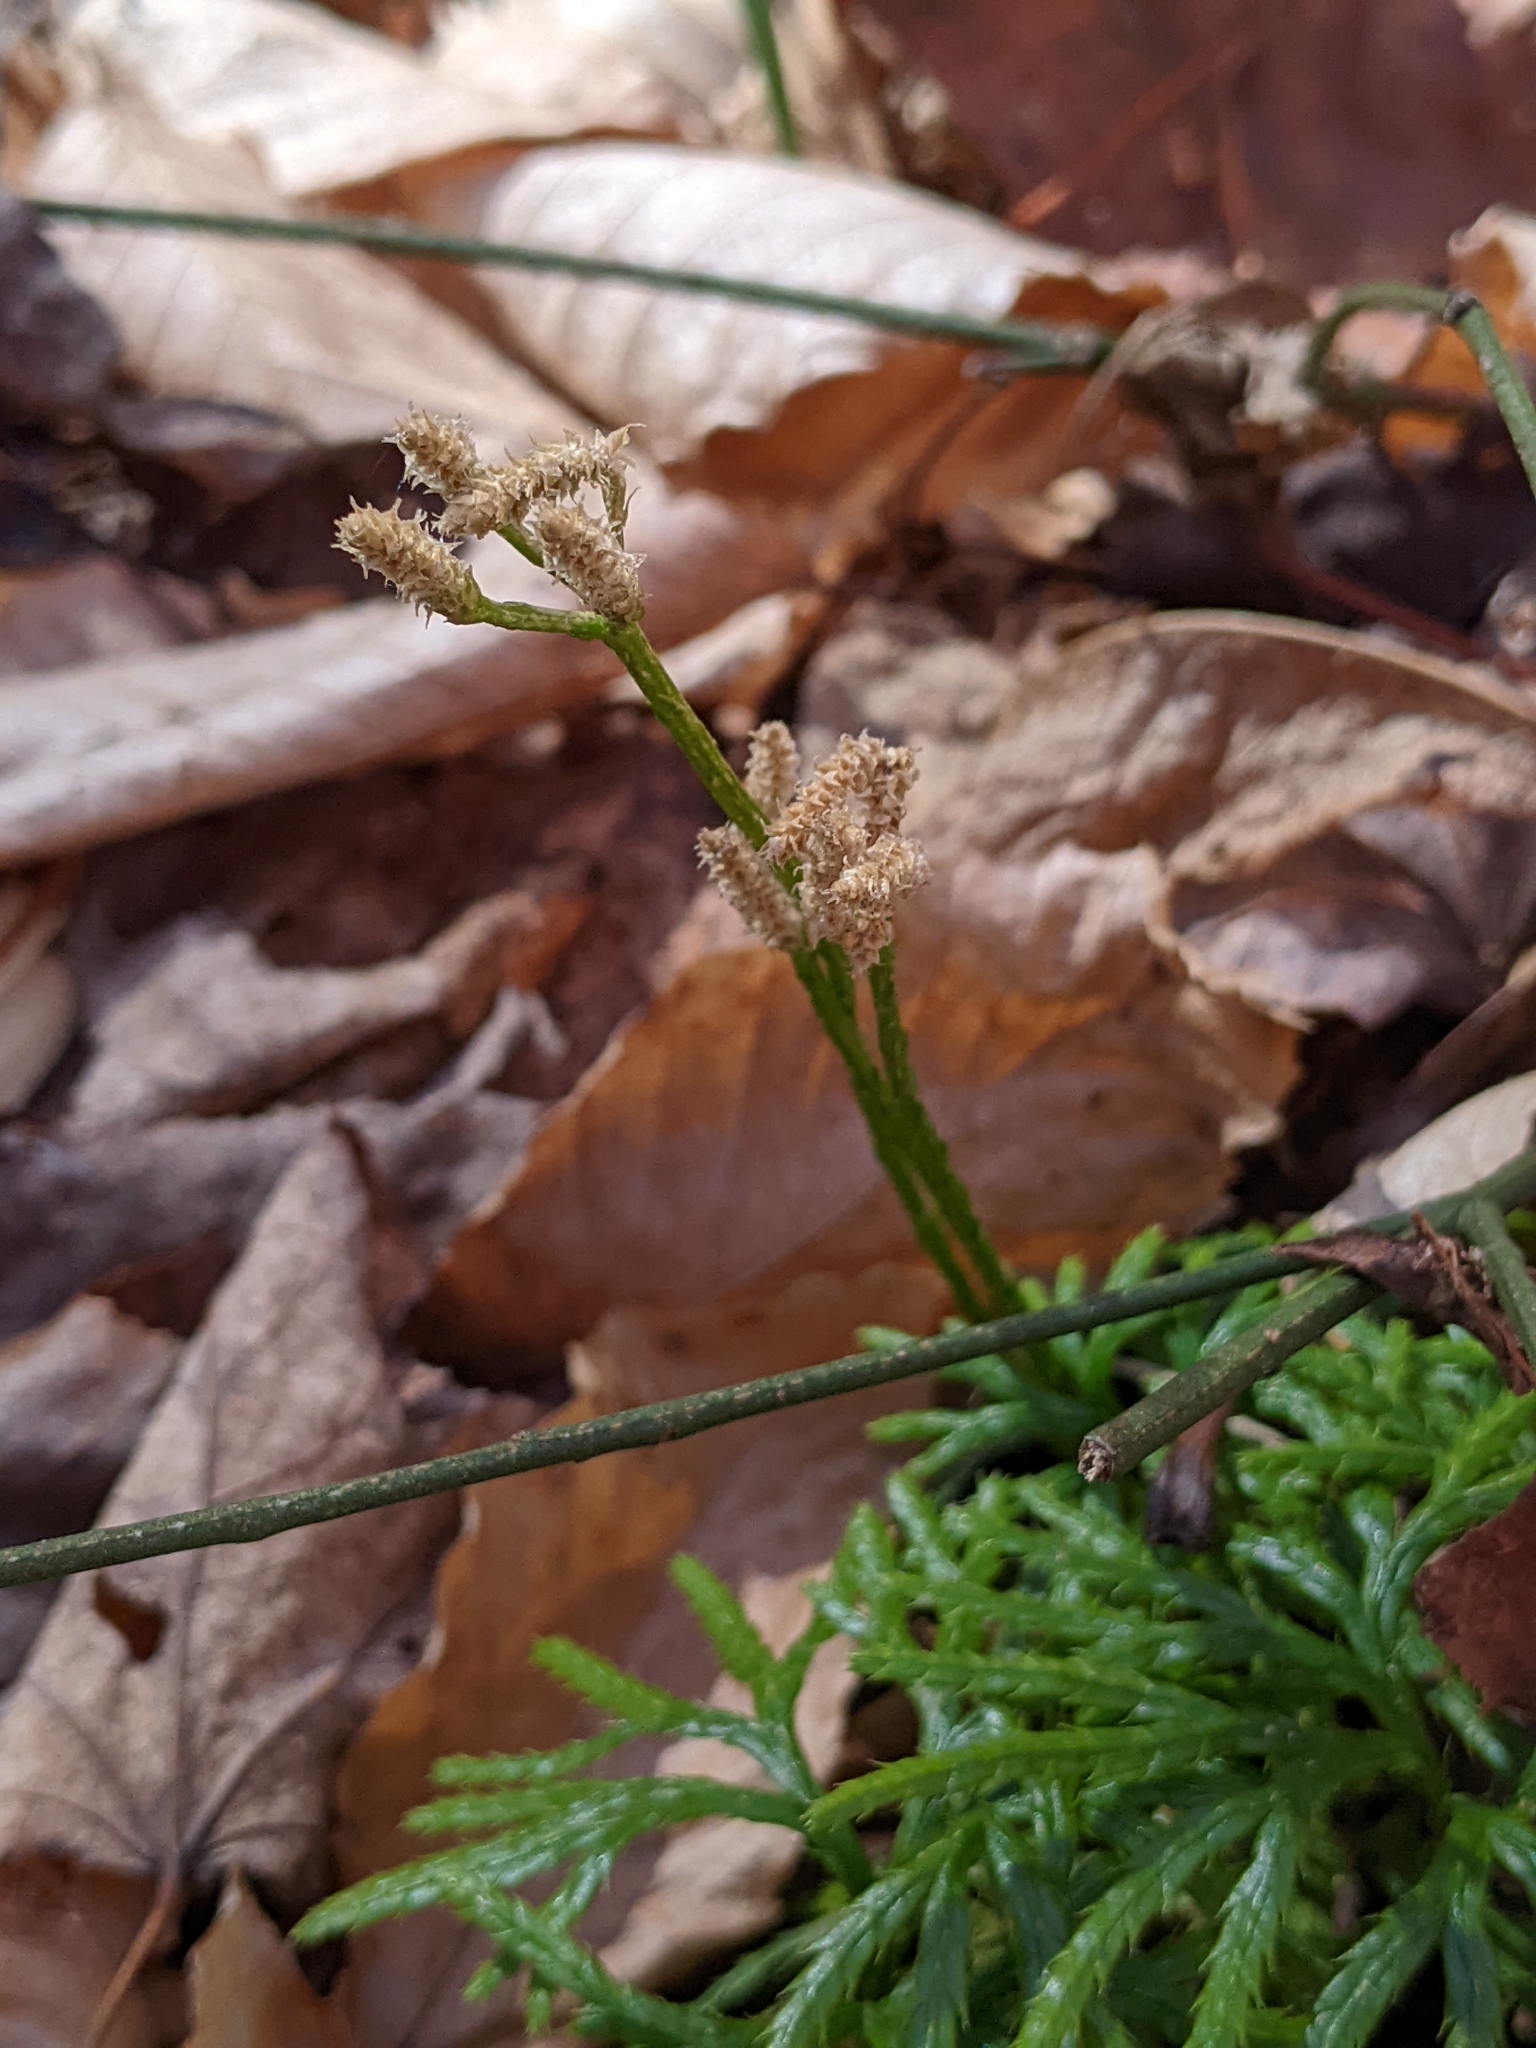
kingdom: Plantae
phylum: Tracheophyta
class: Lycopodiopsida
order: Lycopodiales
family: Lycopodiaceae
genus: Diphasiastrum
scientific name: Diphasiastrum digitatum
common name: Southern running-pine
